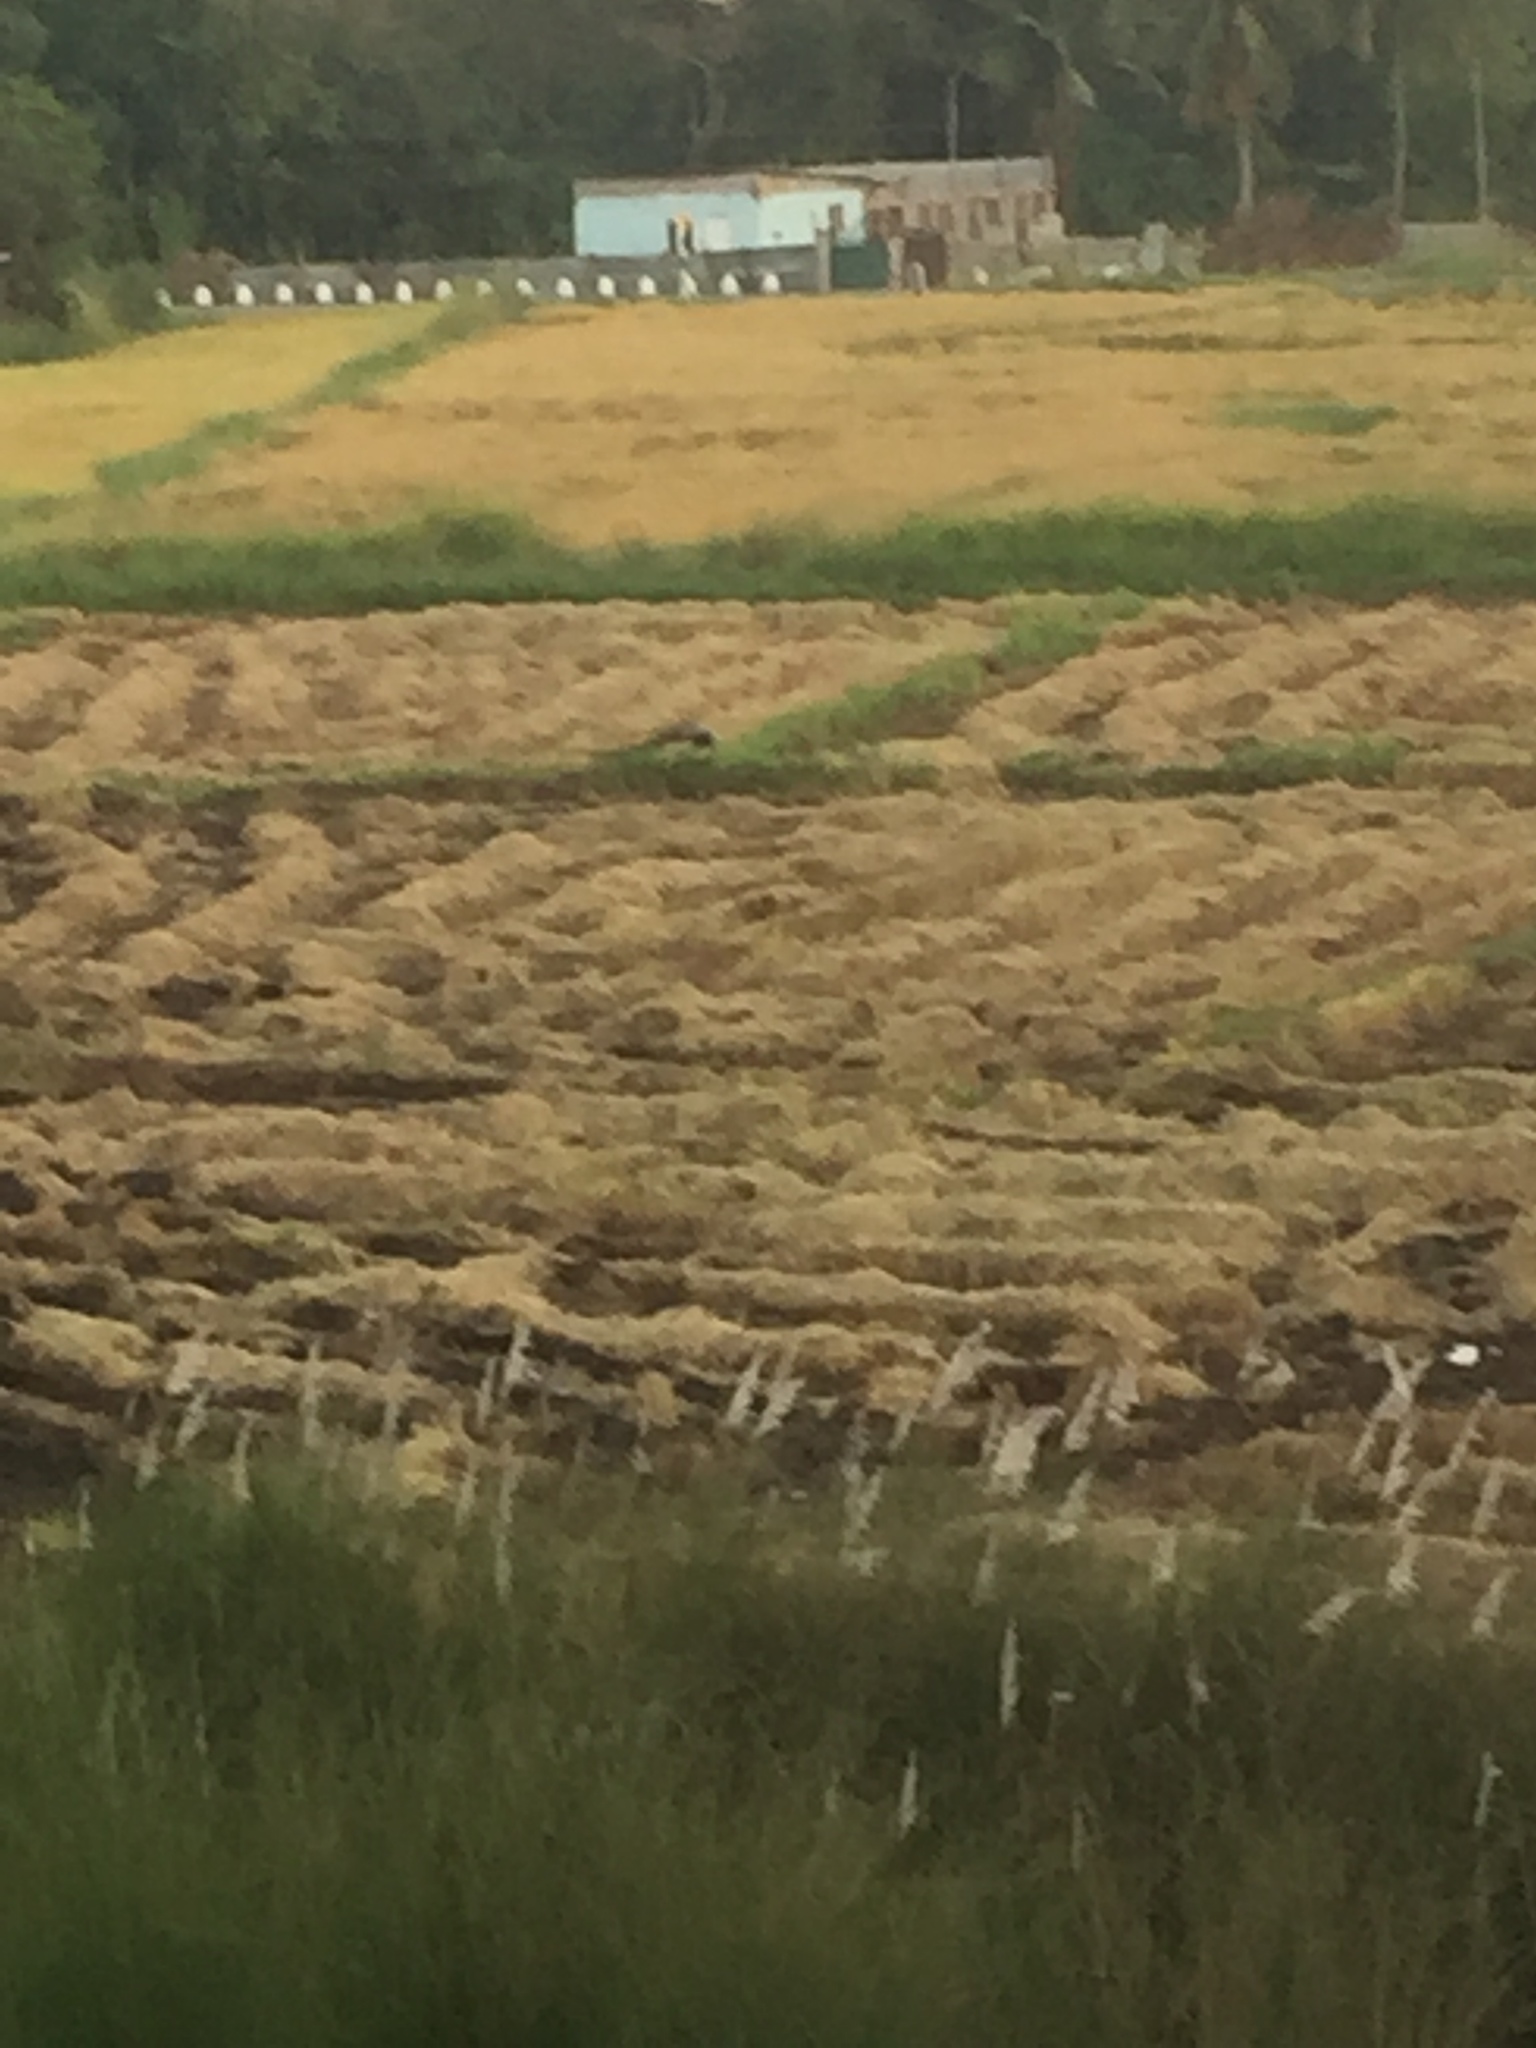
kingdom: Animalia
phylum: Chordata
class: Aves
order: Galliformes
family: Phasianidae
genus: Pavo
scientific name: Pavo cristatus
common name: Indian peafowl
